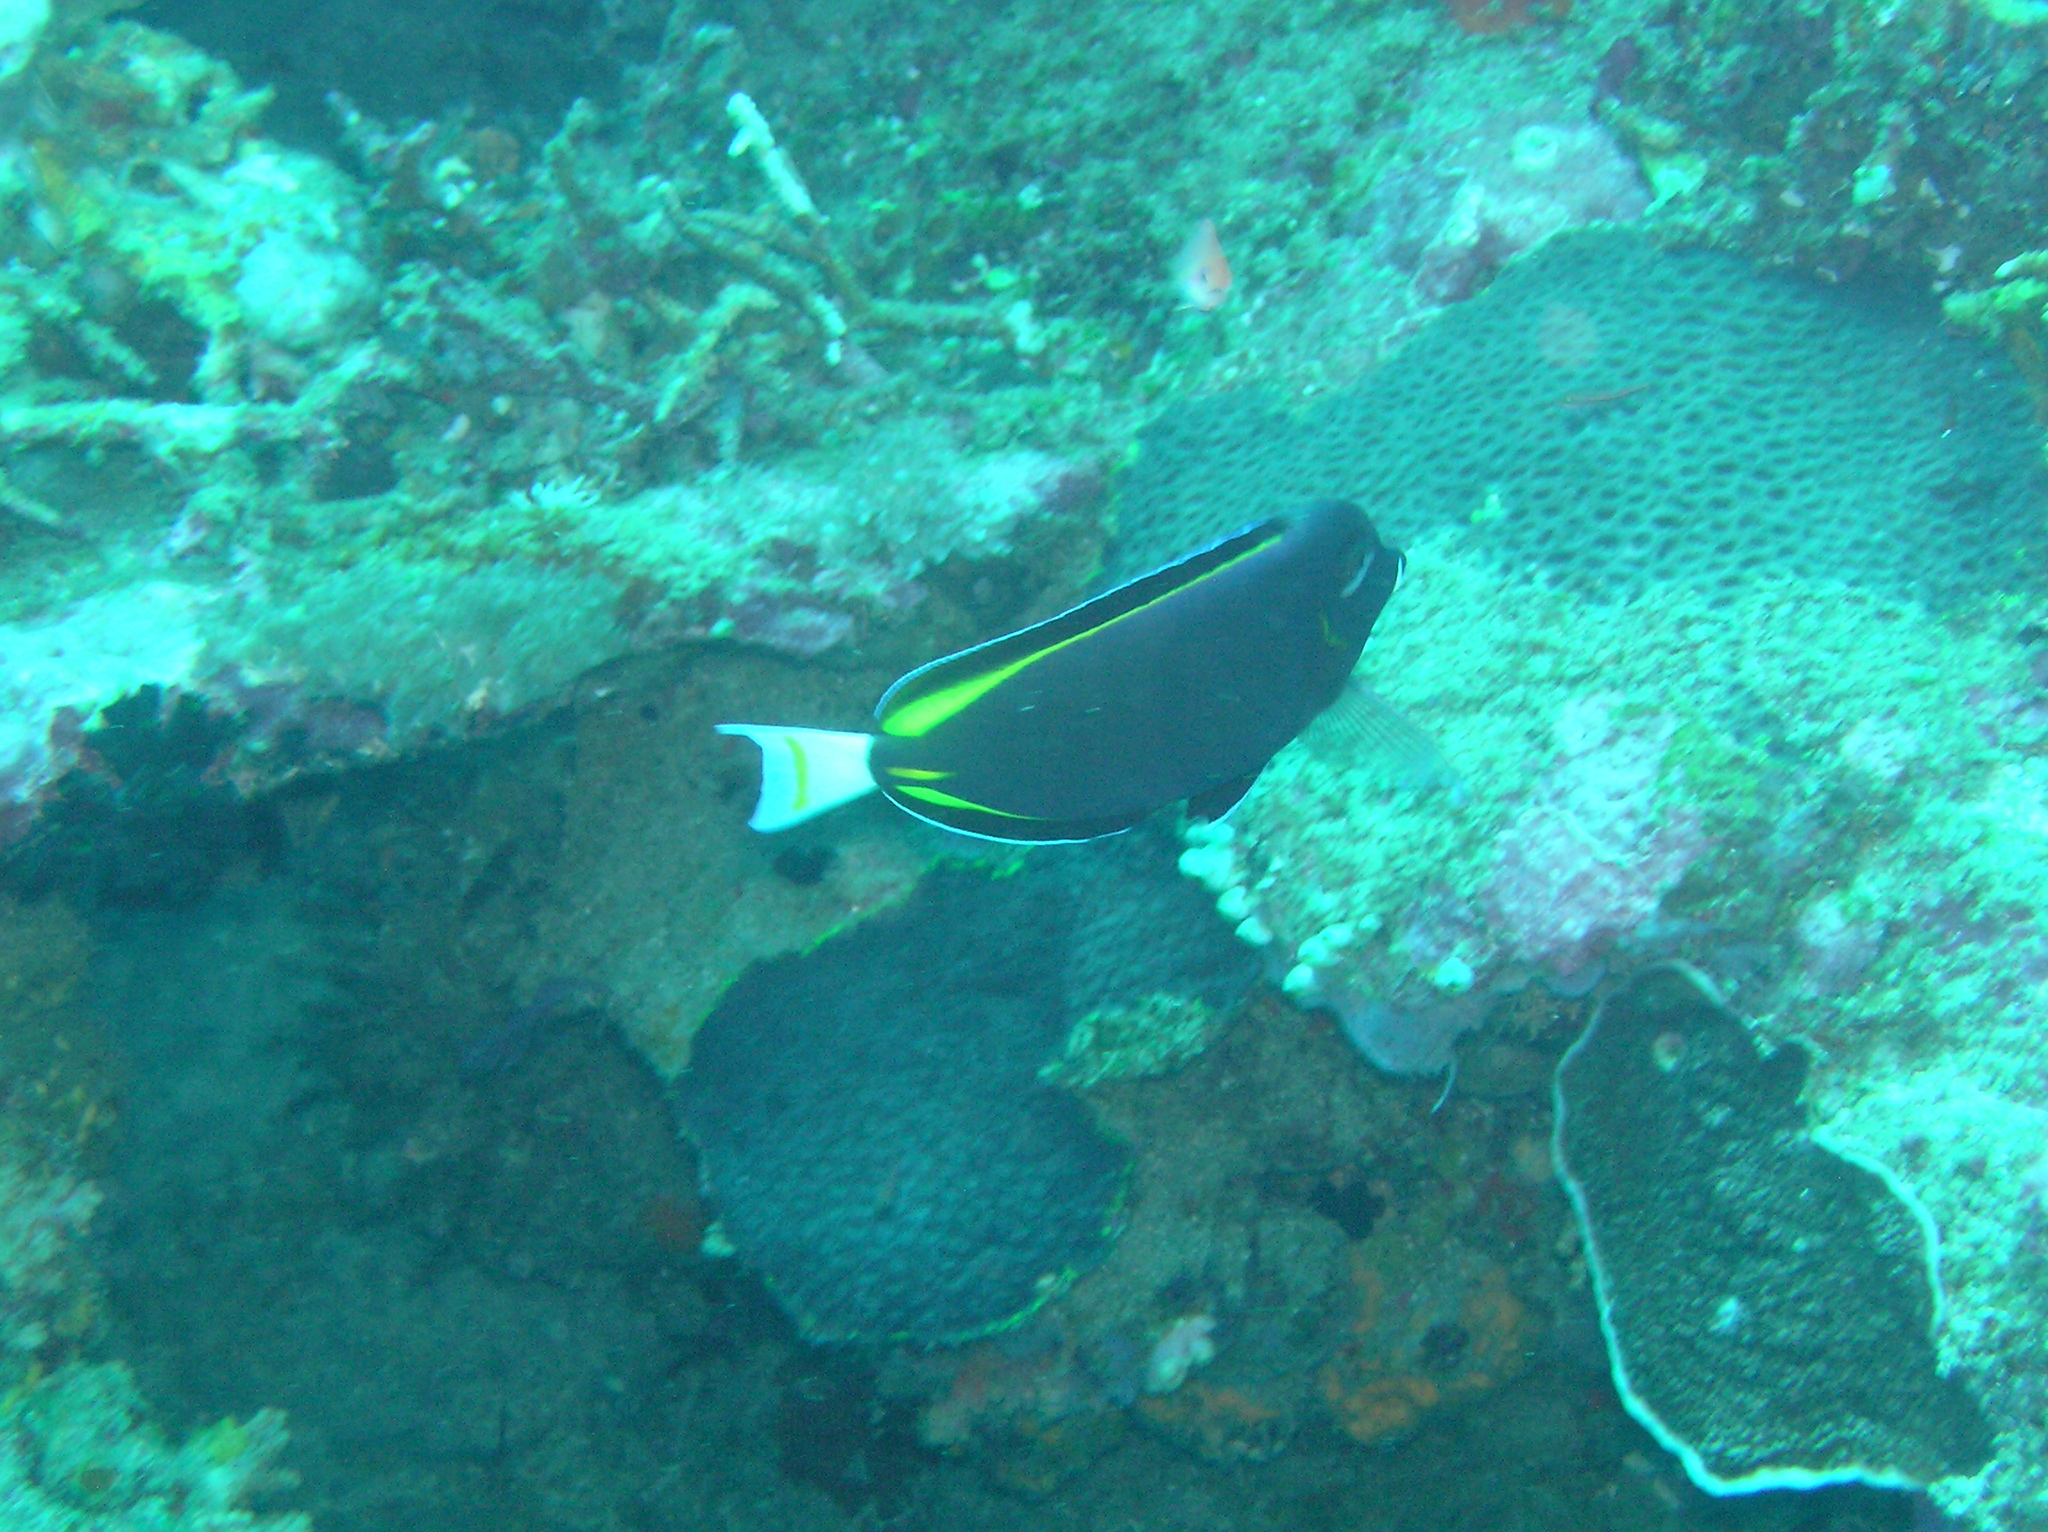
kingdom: Animalia
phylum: Chordata
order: Perciformes
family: Acanthuridae
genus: Acanthurus
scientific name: Acanthurus nigricans
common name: Whitecheek surgeonfish
